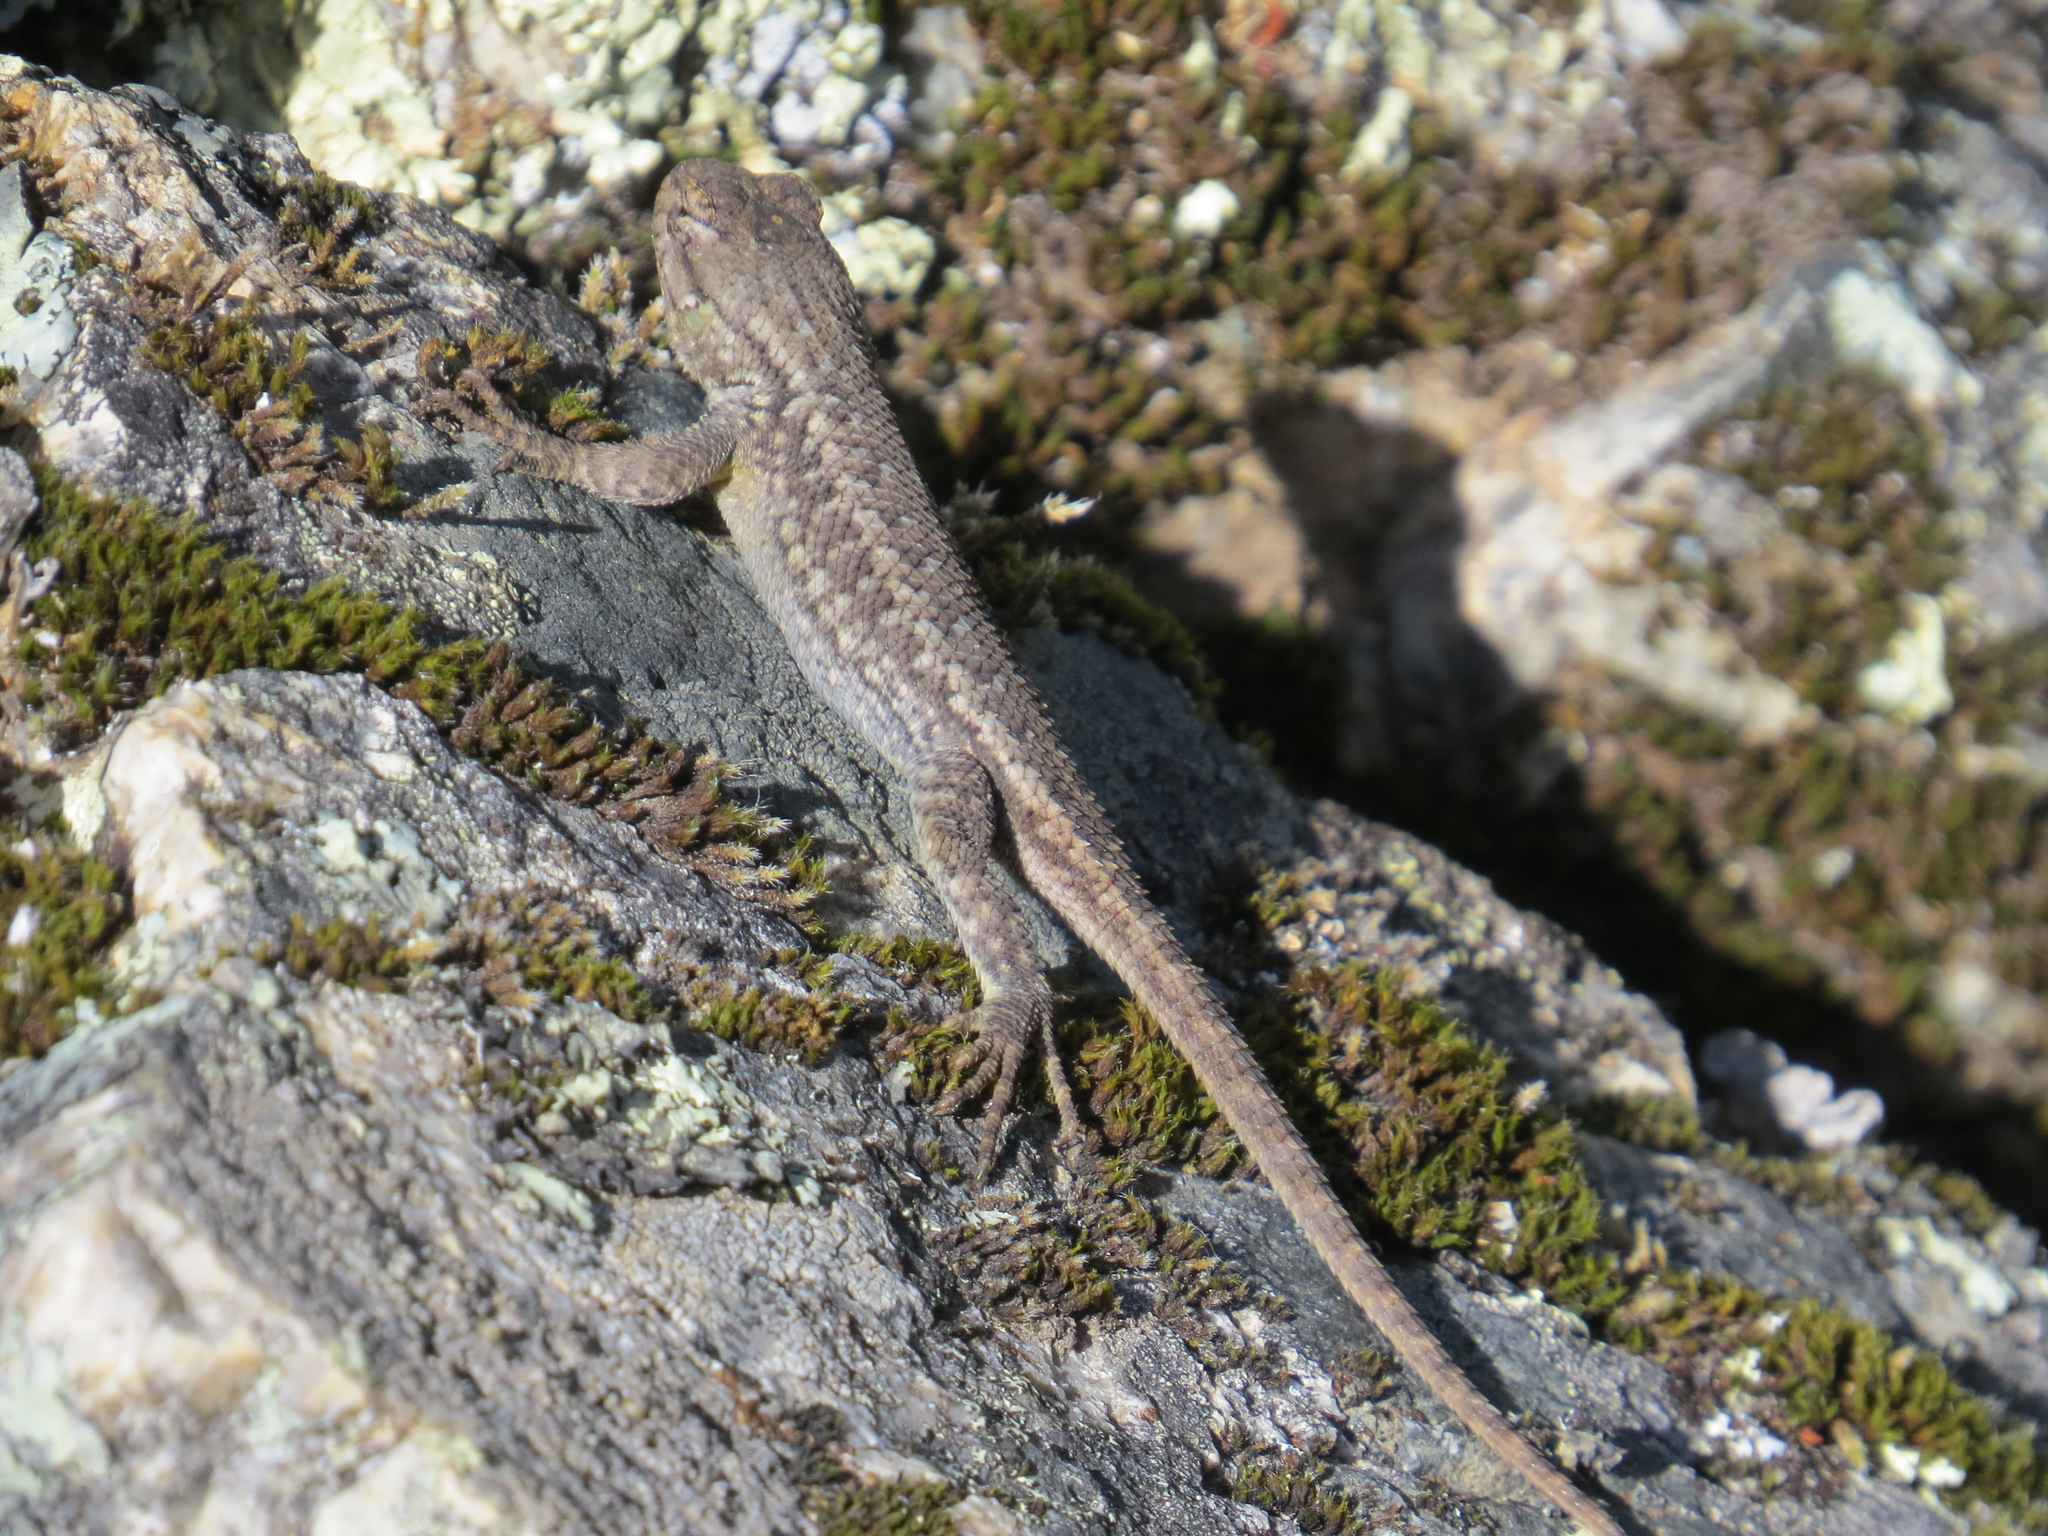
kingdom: Animalia
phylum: Chordata
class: Squamata
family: Phrynosomatidae
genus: Sceloporus
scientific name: Sceloporus occidentalis
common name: Western fence lizard
